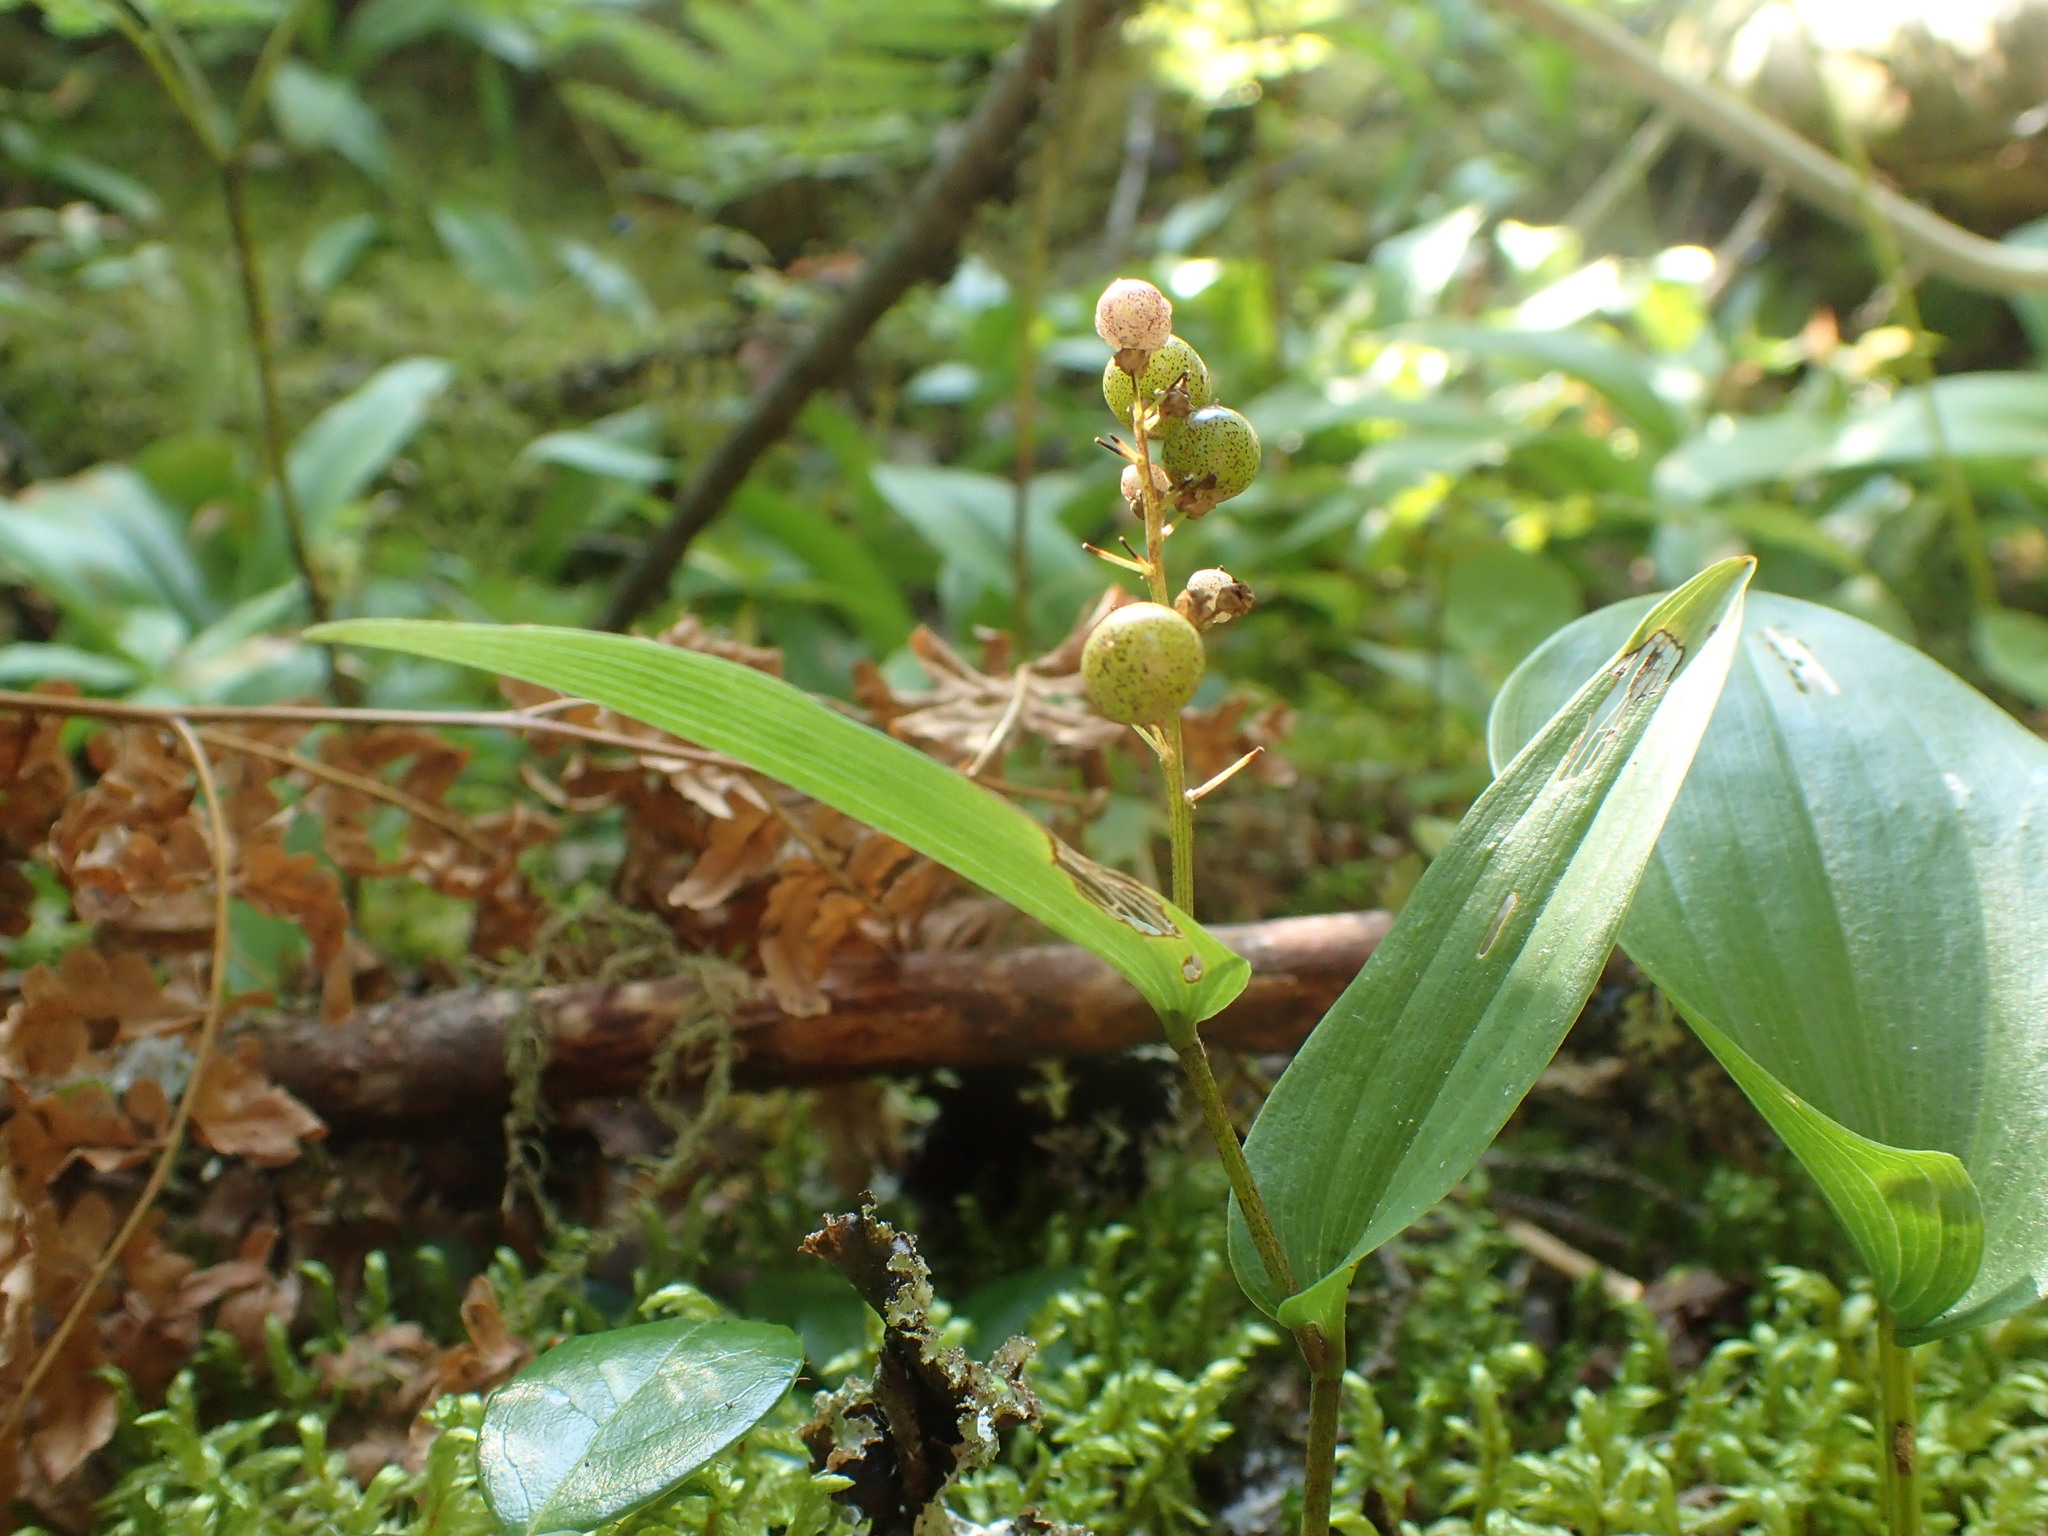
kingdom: Plantae
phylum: Tracheophyta
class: Liliopsida
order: Asparagales
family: Asparagaceae
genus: Maianthemum
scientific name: Maianthemum canadense
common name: False lily-of-the-valley
